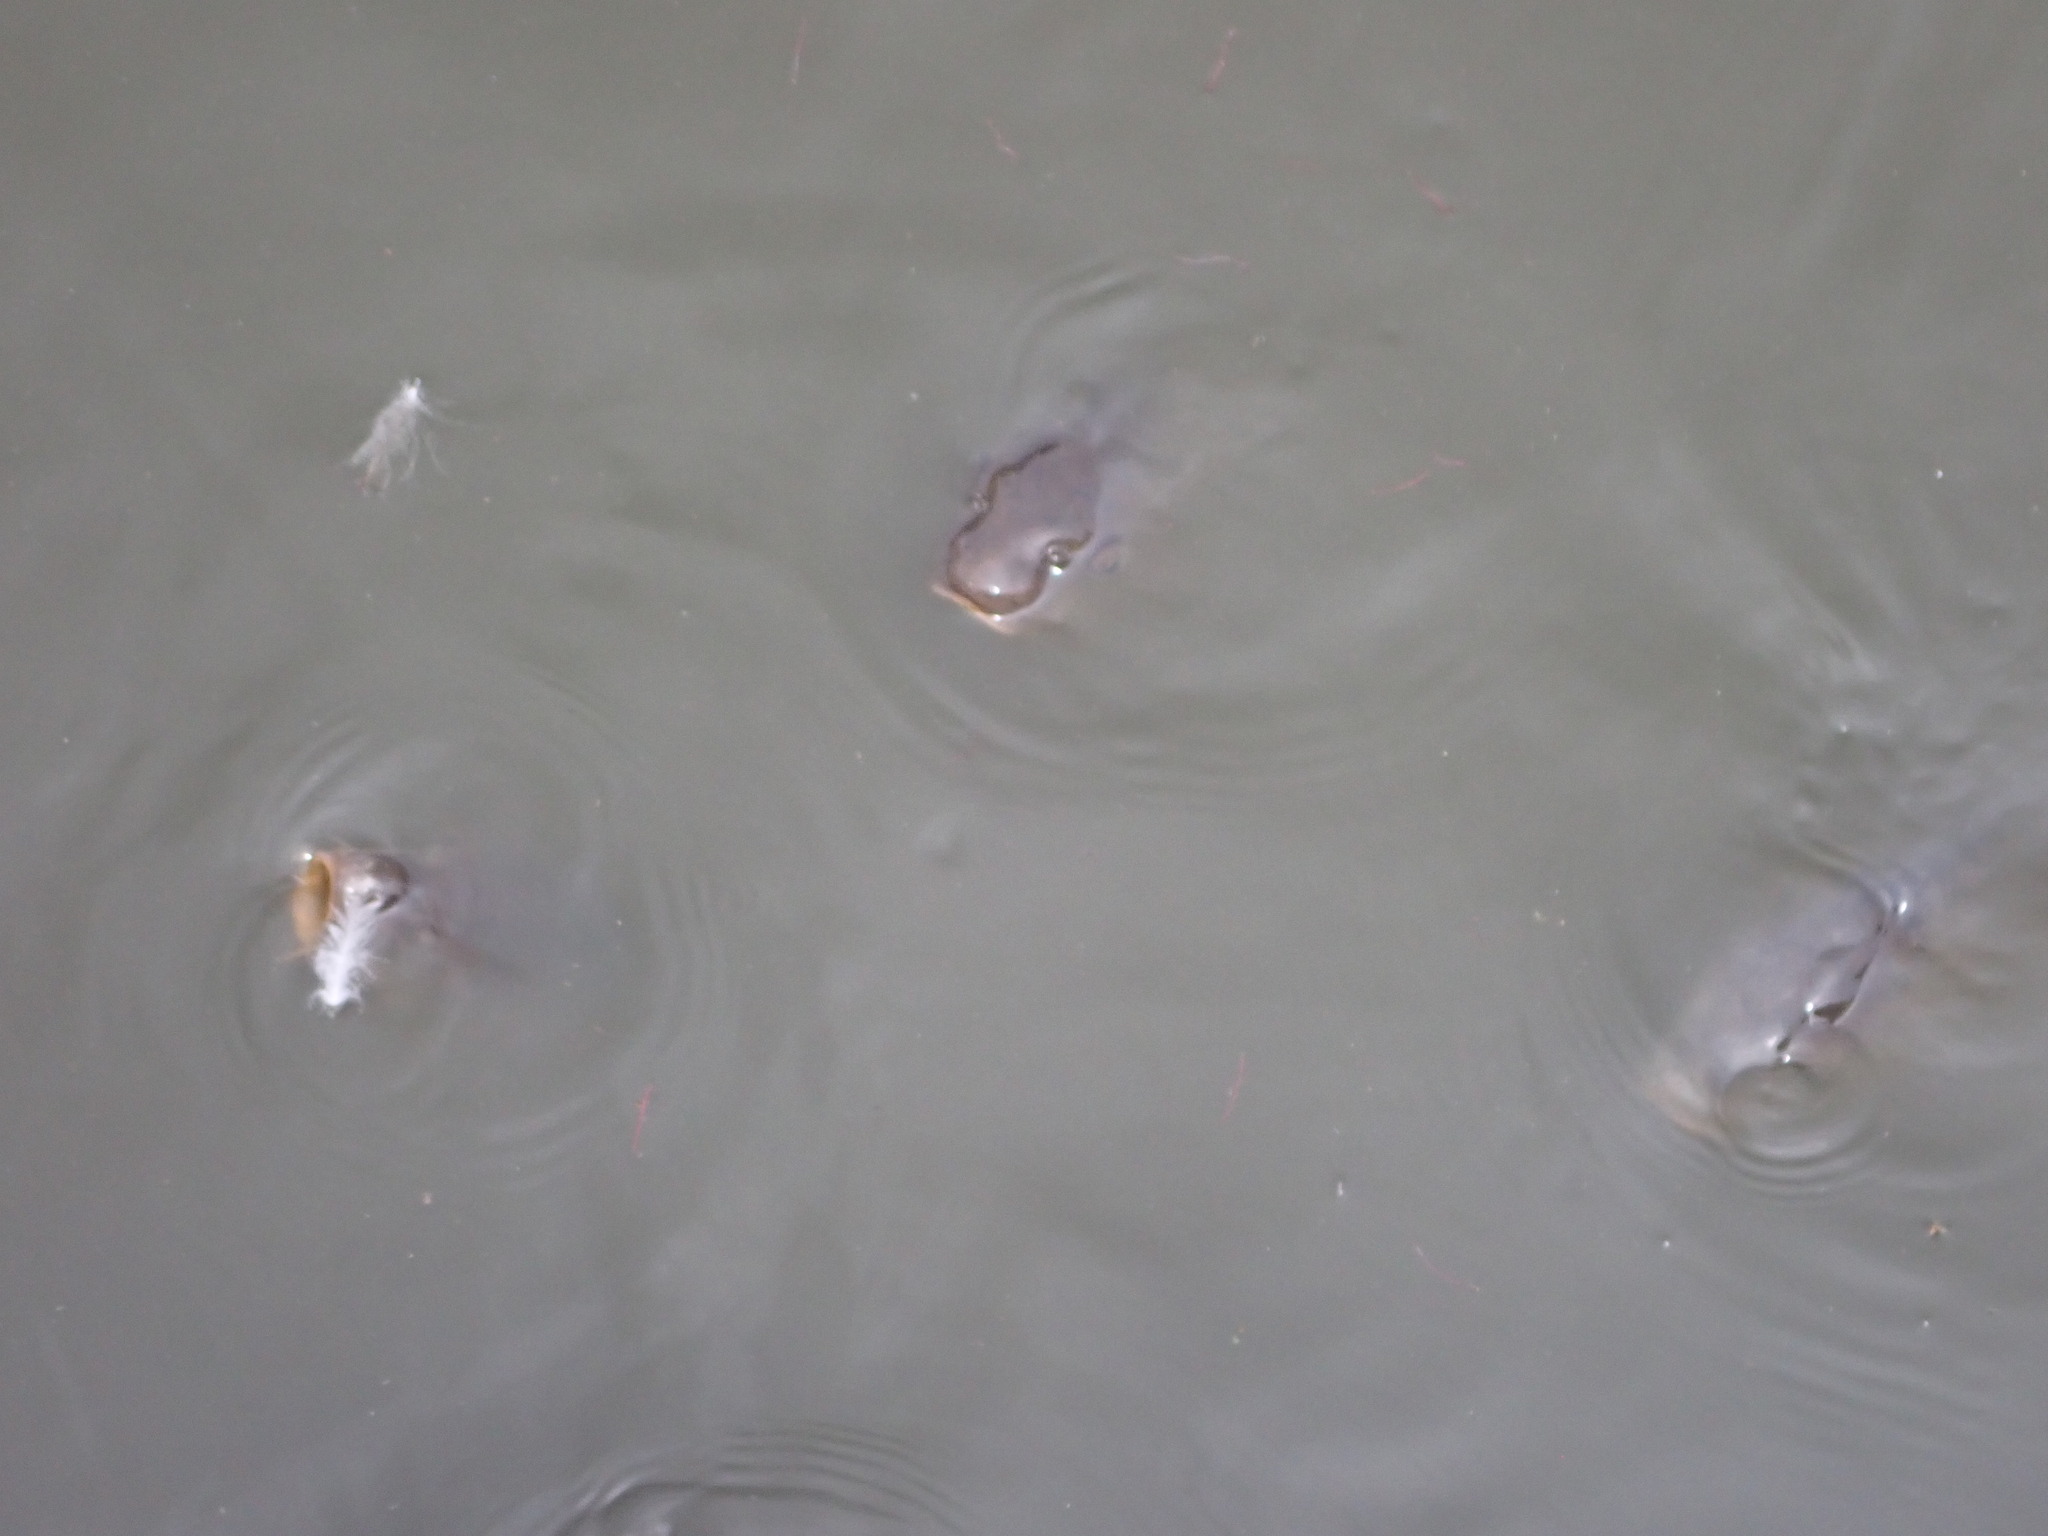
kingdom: Animalia
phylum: Chordata
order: Cypriniformes
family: Cyprinidae
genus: Cyprinus
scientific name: Cyprinus carpio
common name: Common carp
